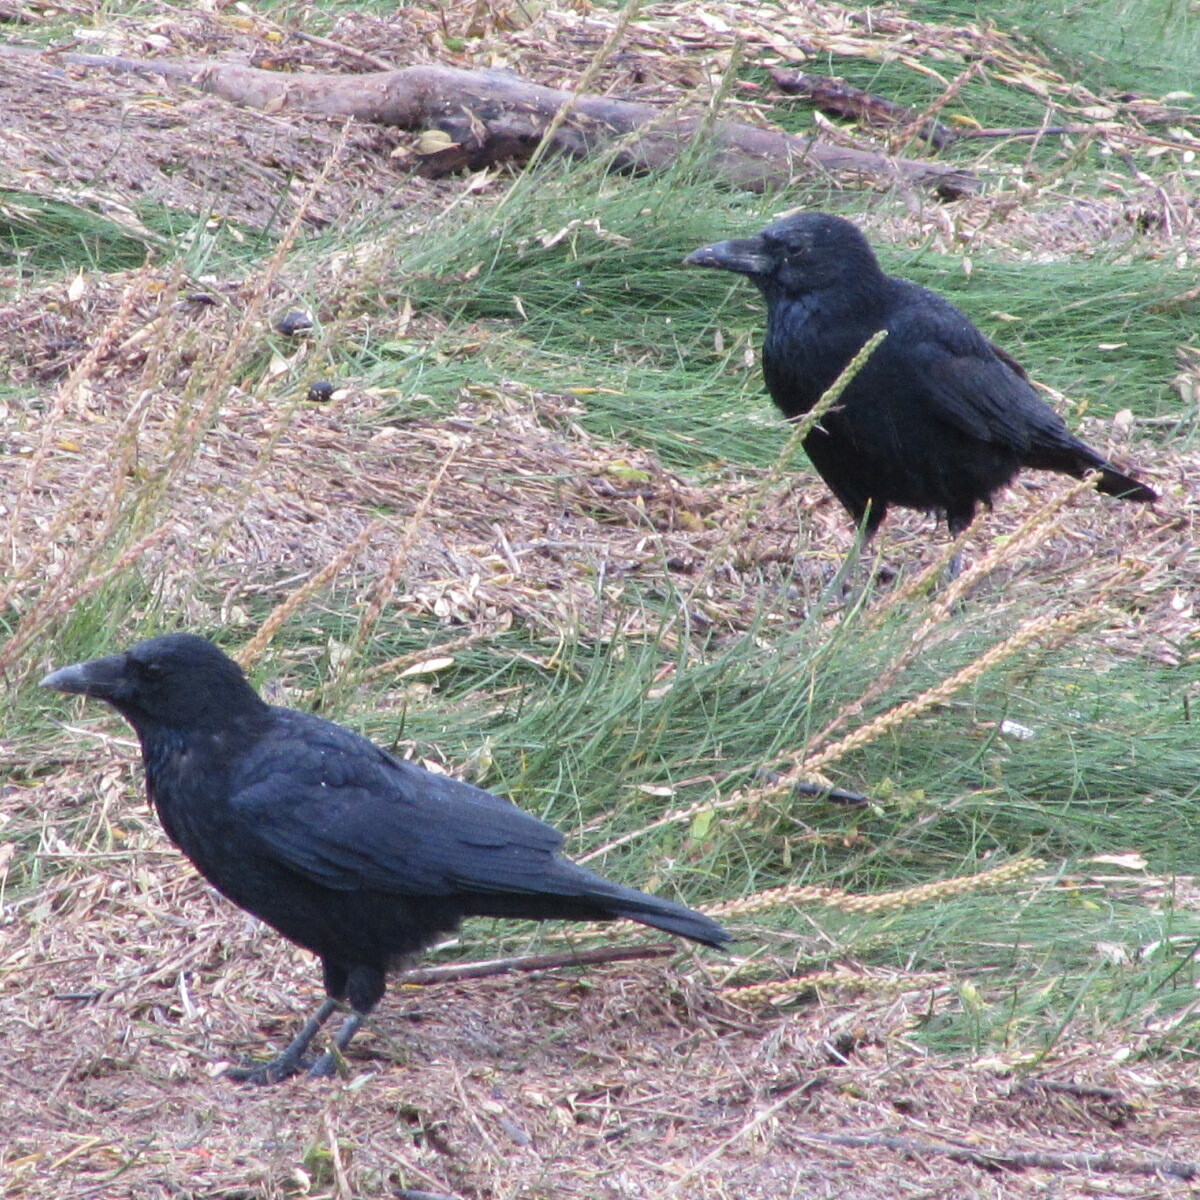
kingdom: Animalia
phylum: Chordata
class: Aves
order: Passeriformes
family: Corvidae
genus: Corvus
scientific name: Corvus corone
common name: Carrion crow
